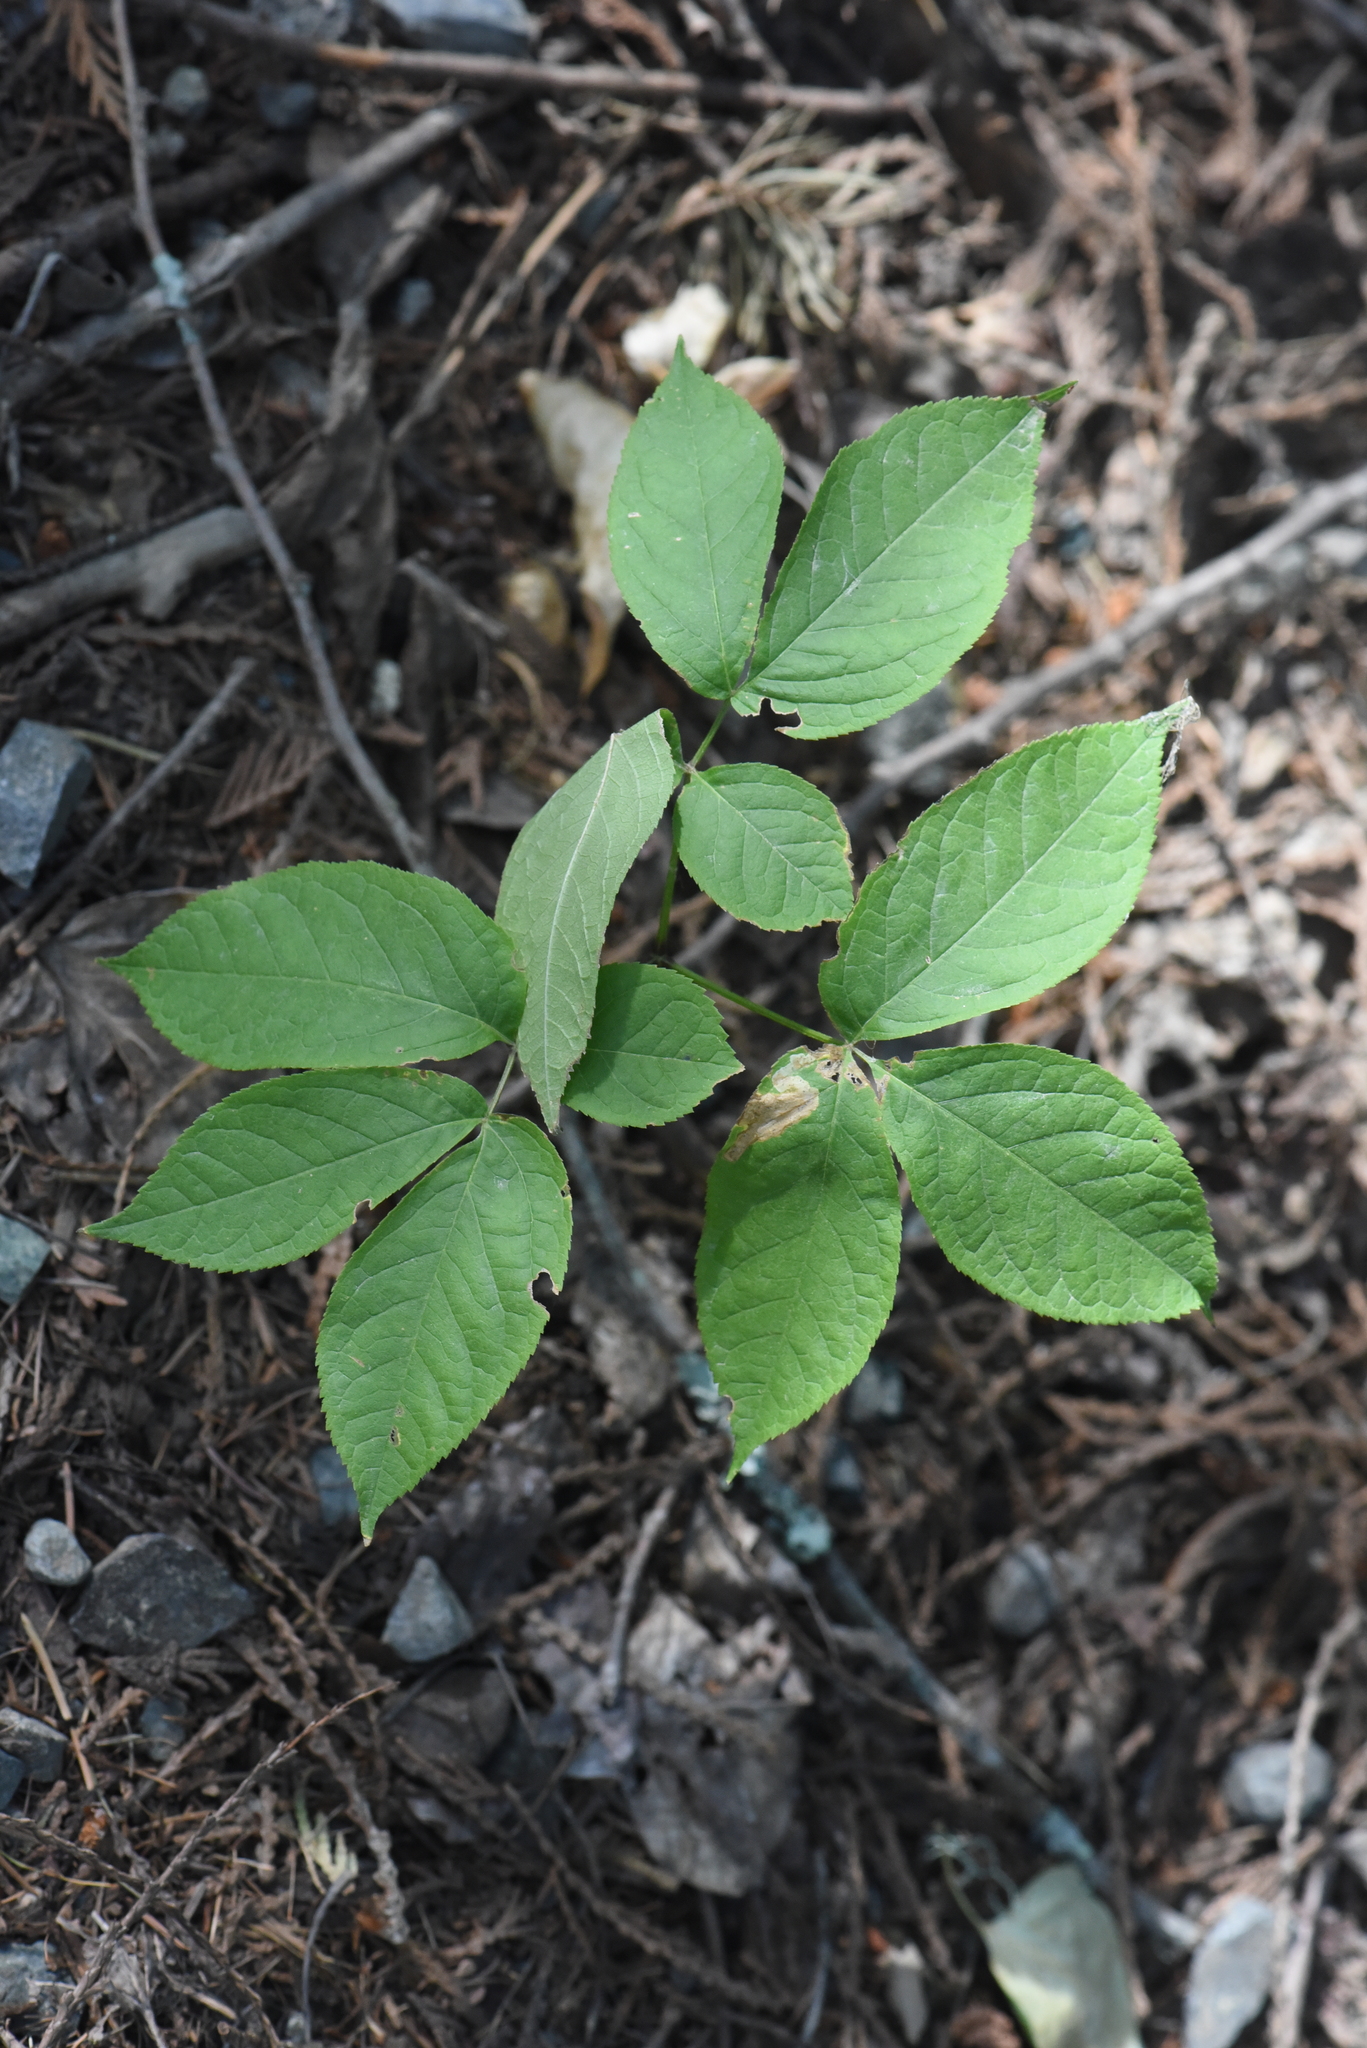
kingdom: Plantae
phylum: Tracheophyta
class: Magnoliopsida
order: Apiales
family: Araliaceae
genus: Aralia
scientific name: Aralia nudicaulis
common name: Wild sarsaparilla
